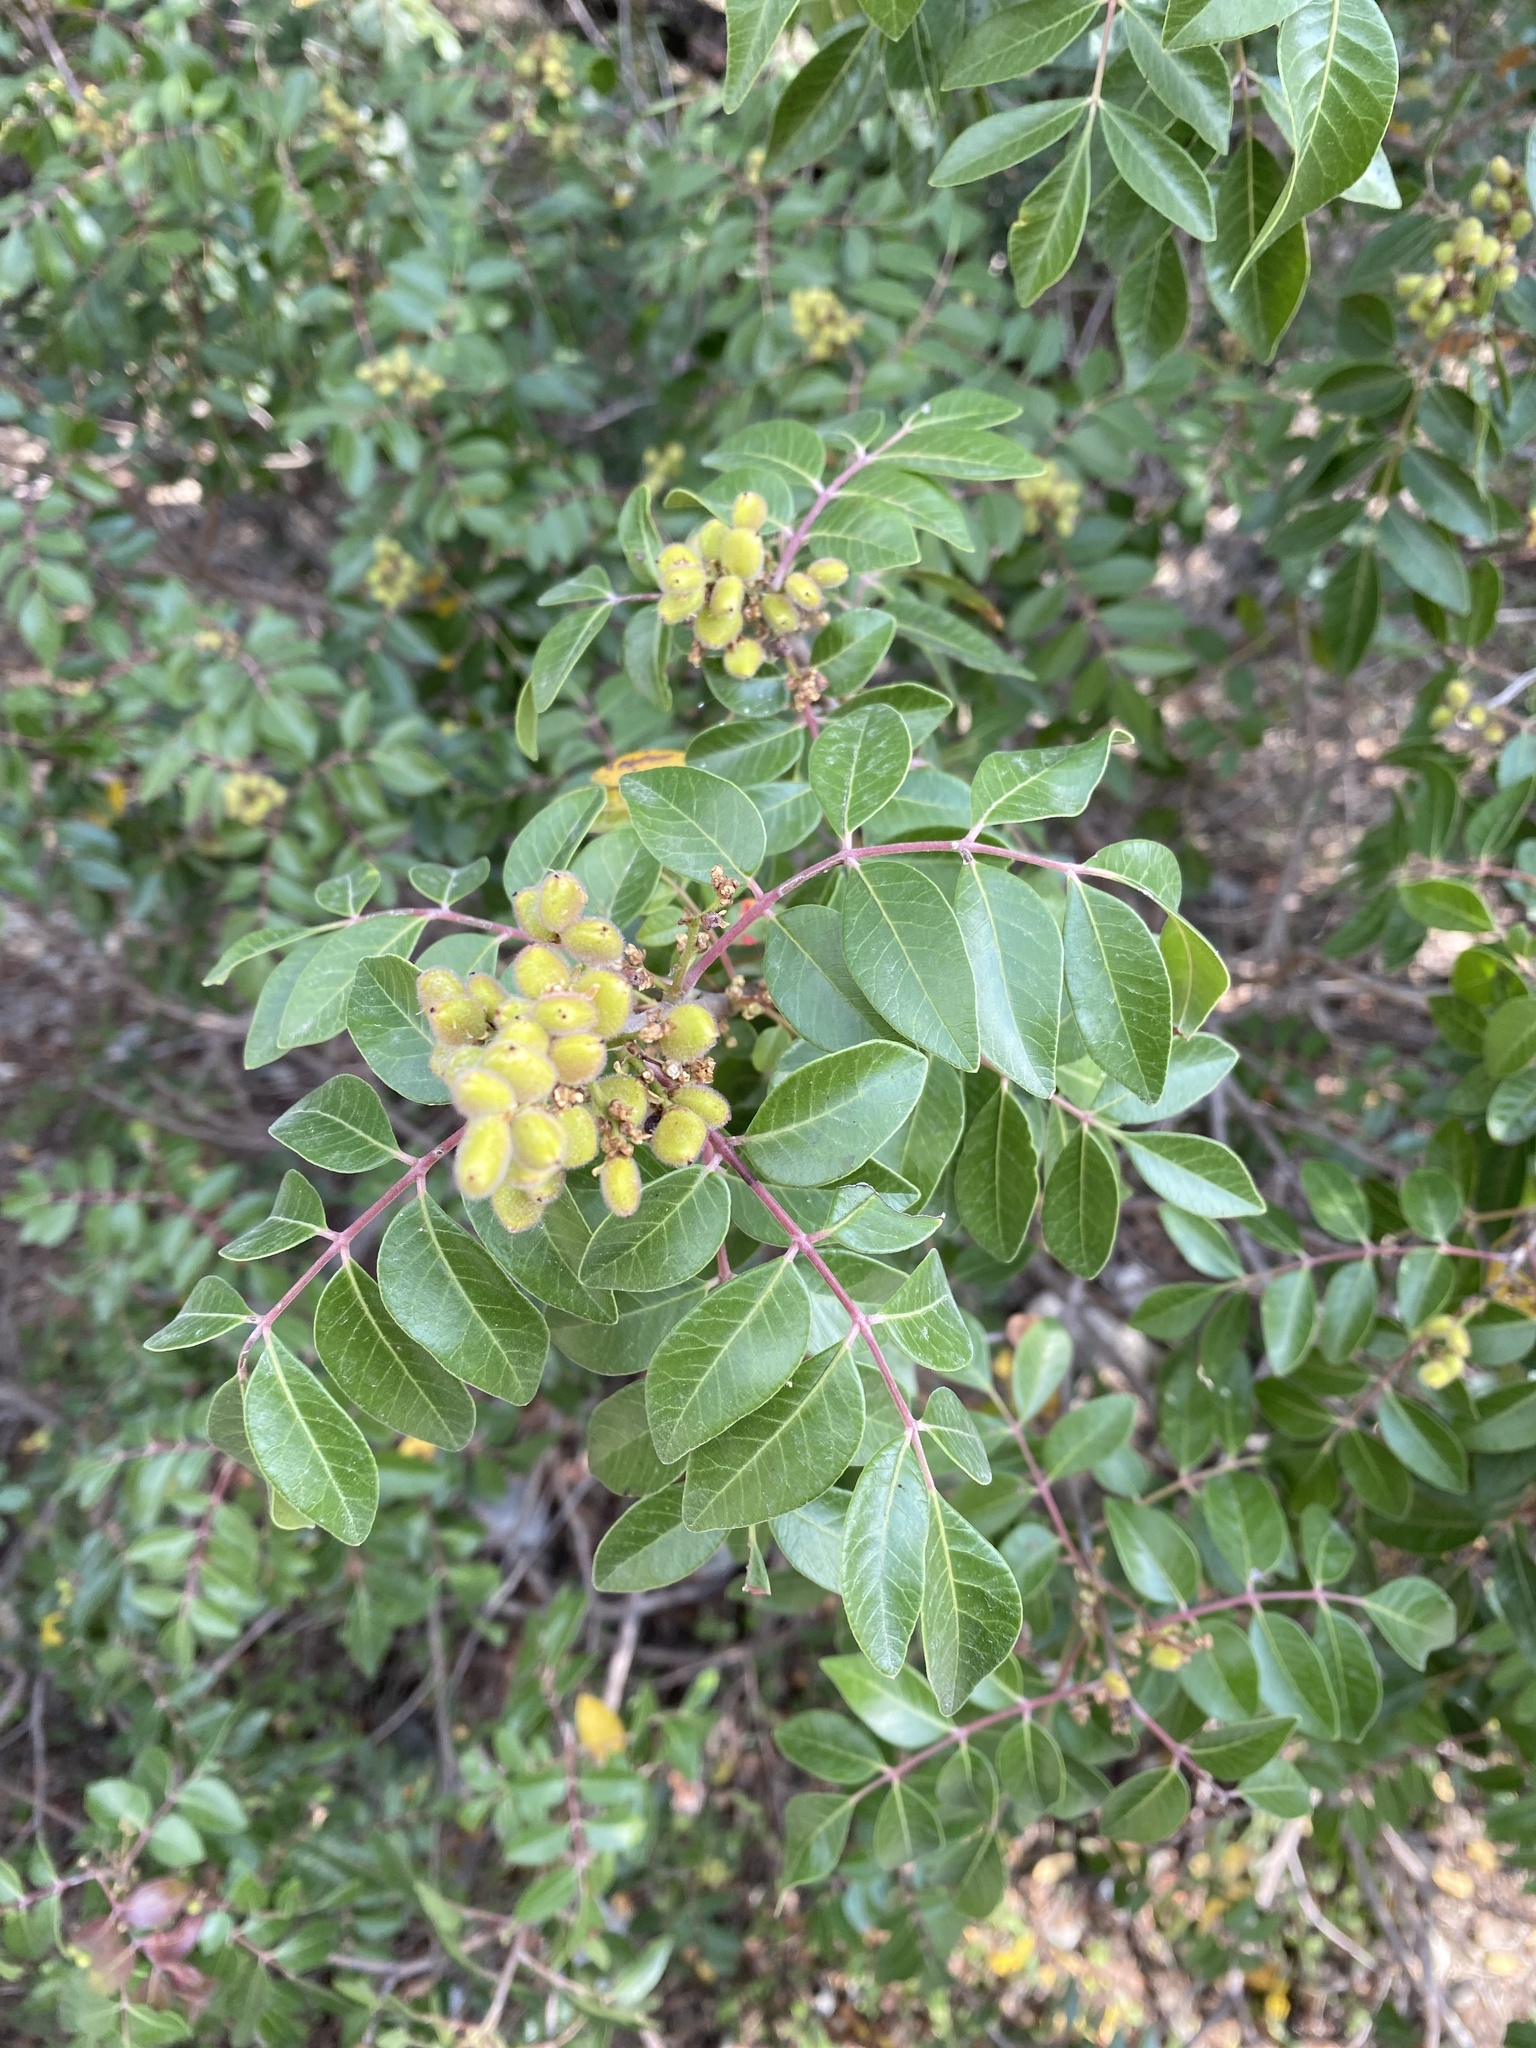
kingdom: Plantae
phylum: Tracheophyta
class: Magnoliopsida
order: Sapindales
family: Anacardiaceae
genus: Rhus
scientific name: Rhus virens
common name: Evergreen sumac
